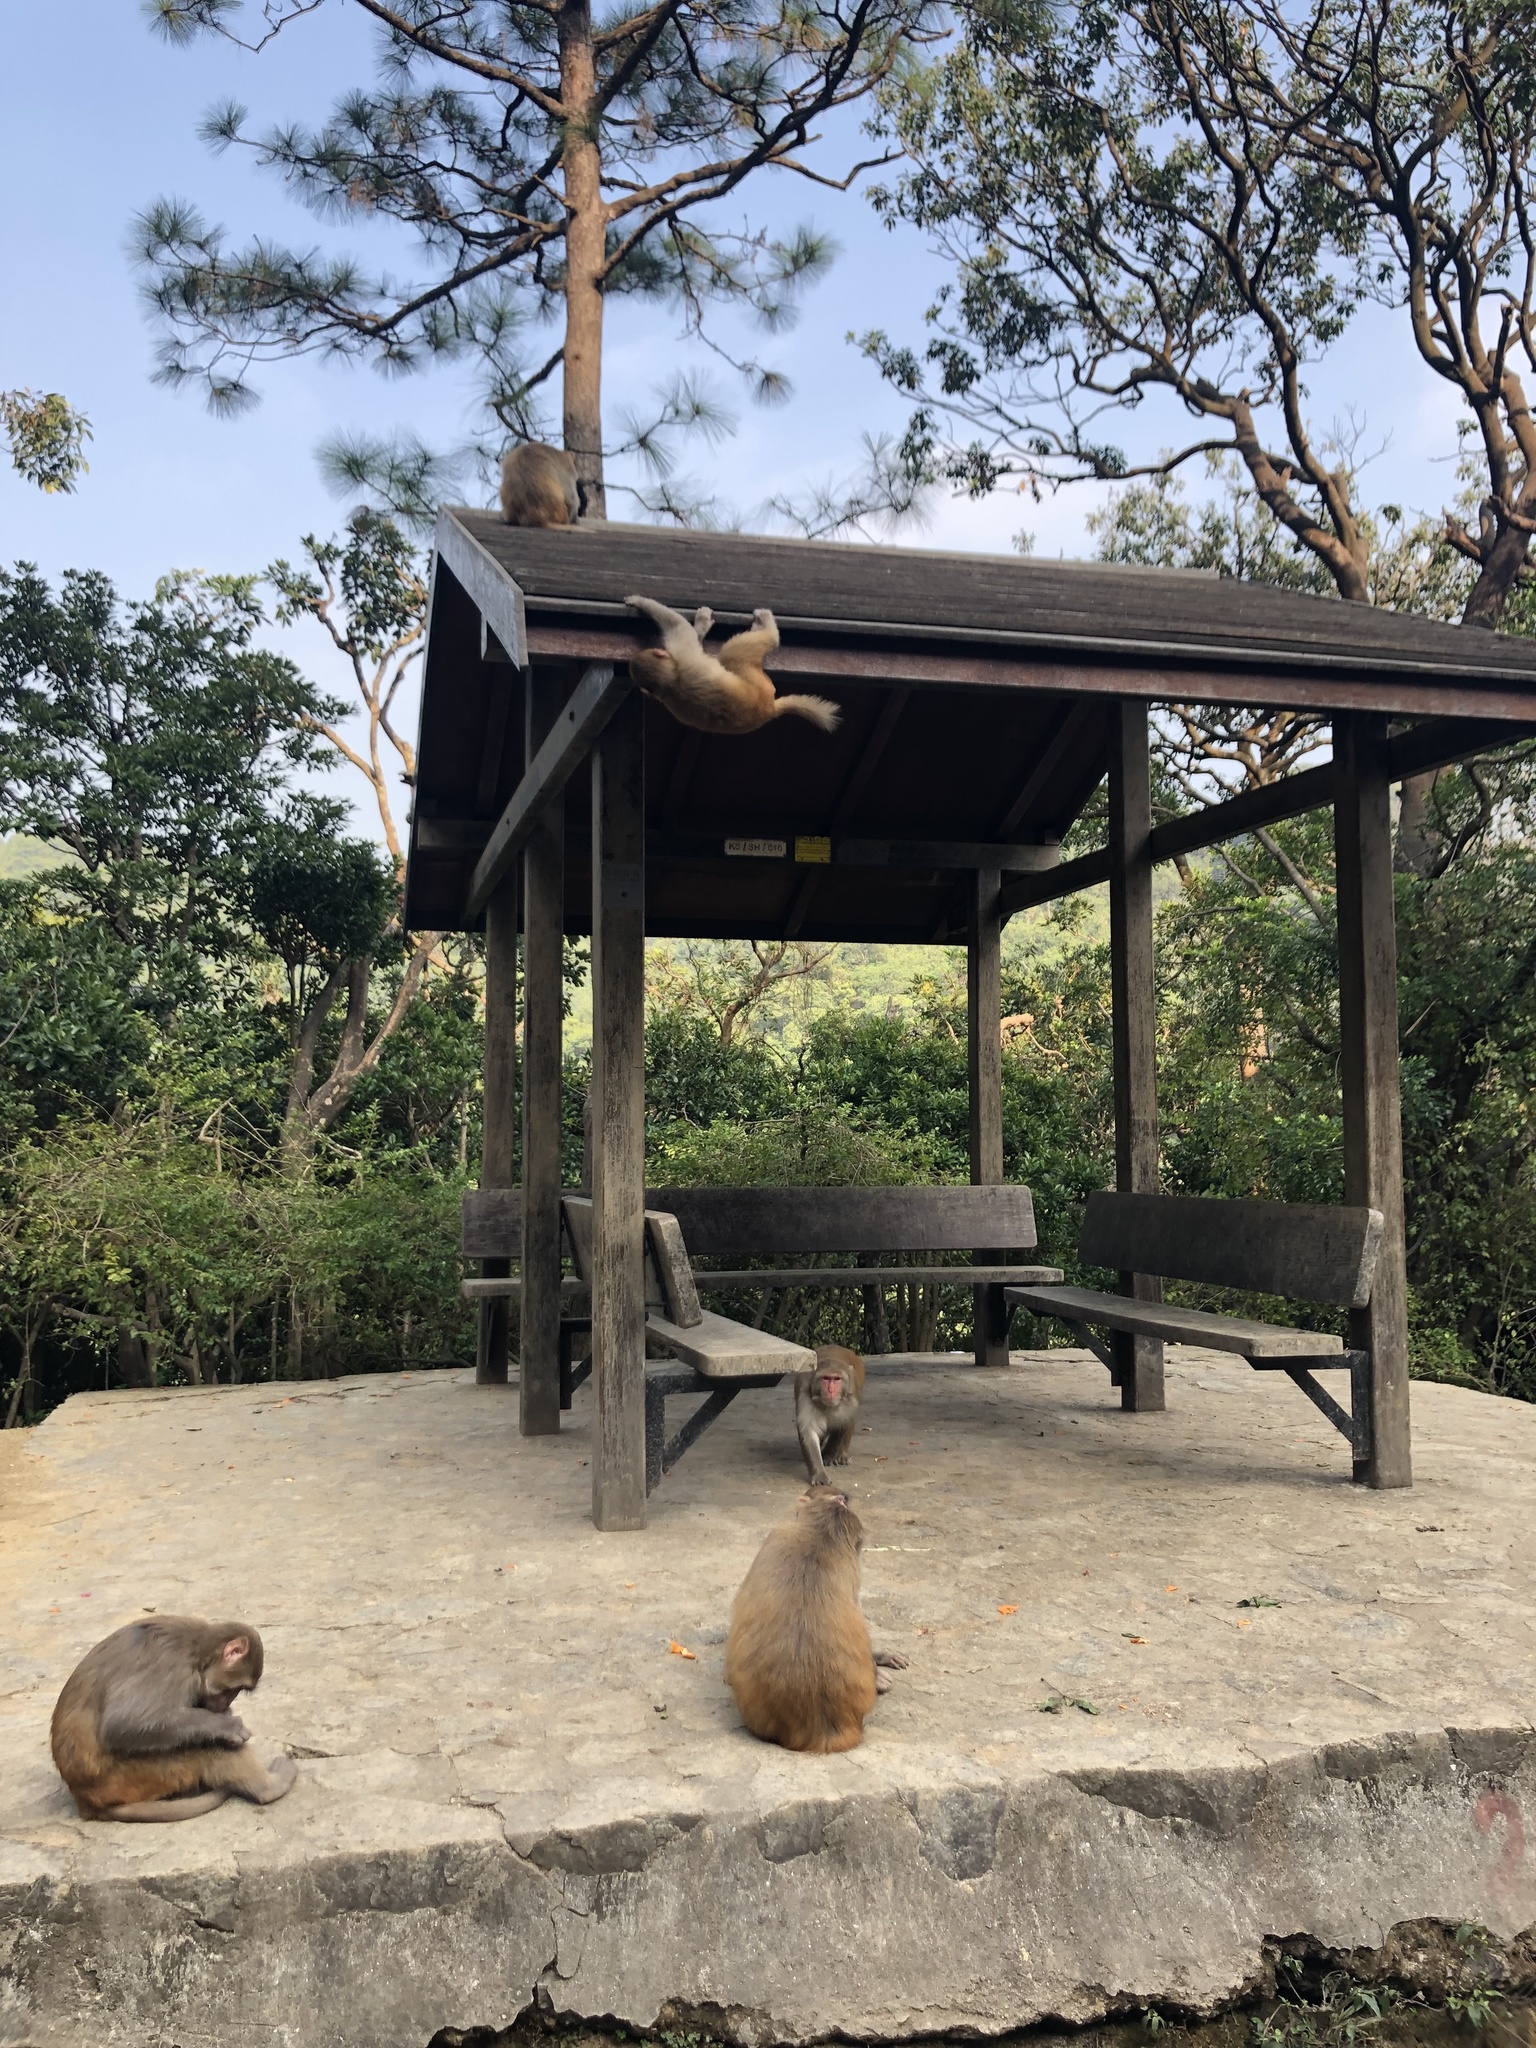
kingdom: Animalia
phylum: Chordata
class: Mammalia
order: Primates
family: Cercopithecidae
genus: Macaca
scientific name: Macaca mulatta
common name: Rhesus monkey
